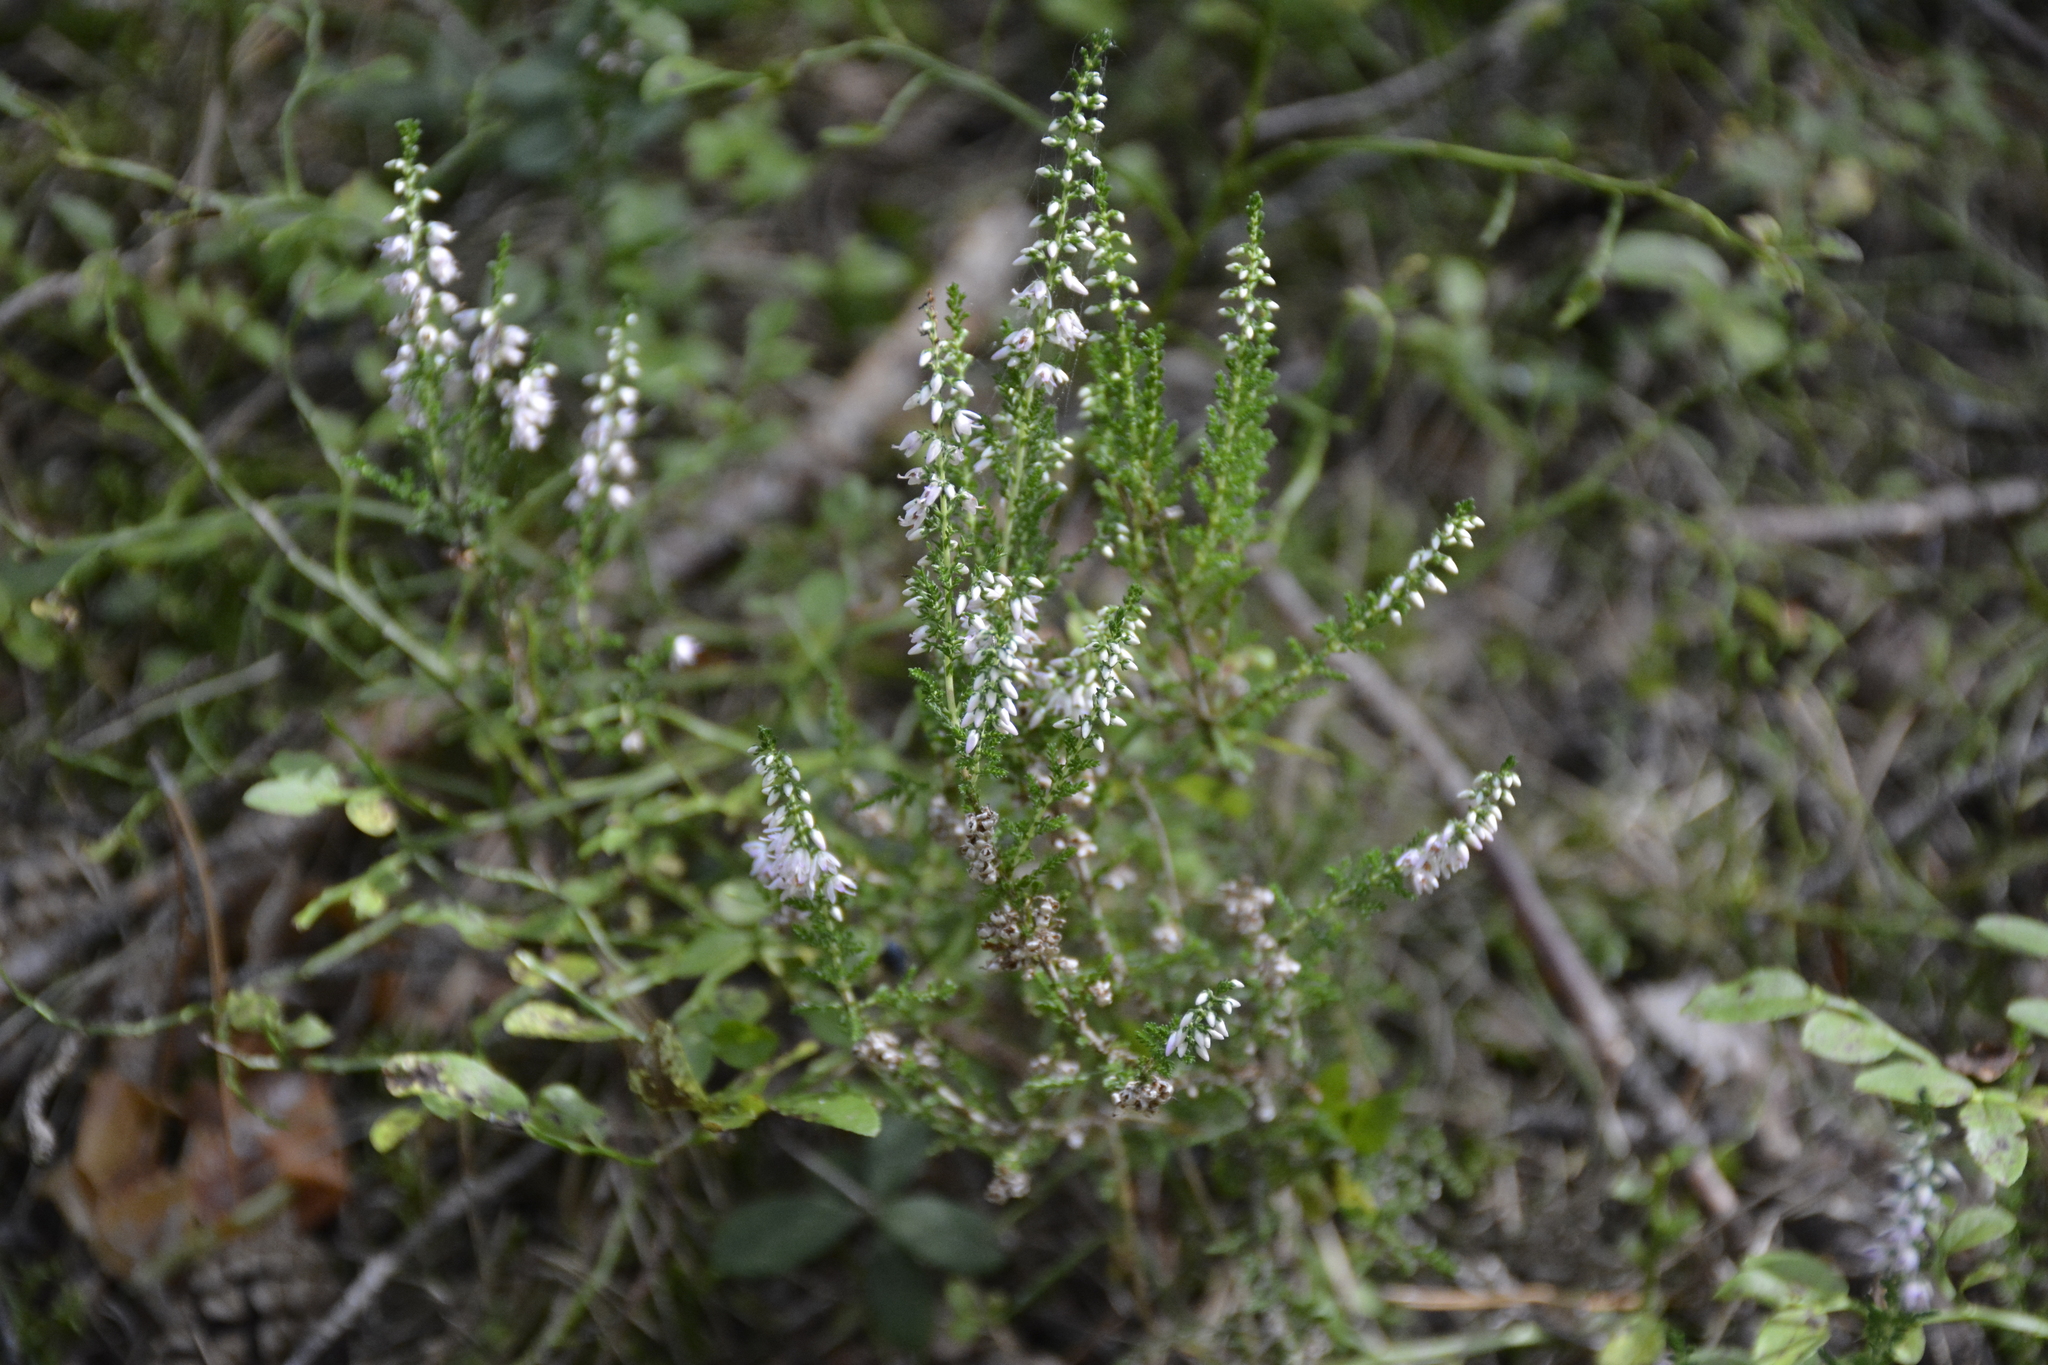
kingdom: Plantae
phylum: Tracheophyta
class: Magnoliopsida
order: Ericales
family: Ericaceae
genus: Calluna
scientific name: Calluna vulgaris
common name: Heather
